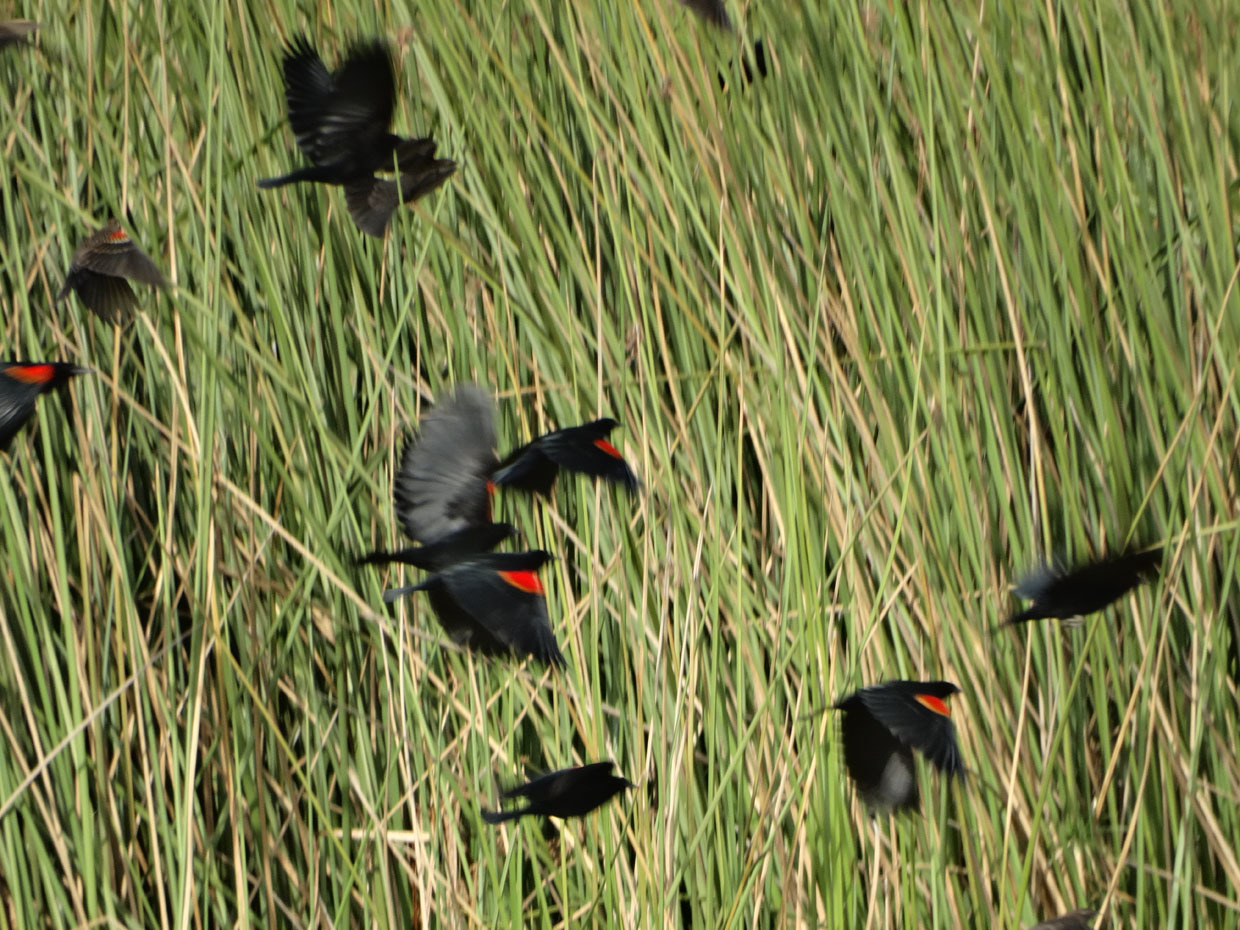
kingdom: Animalia
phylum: Chordata
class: Aves
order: Passeriformes
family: Icteridae
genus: Agelaius
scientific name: Agelaius phoeniceus
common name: Red-winged blackbird
